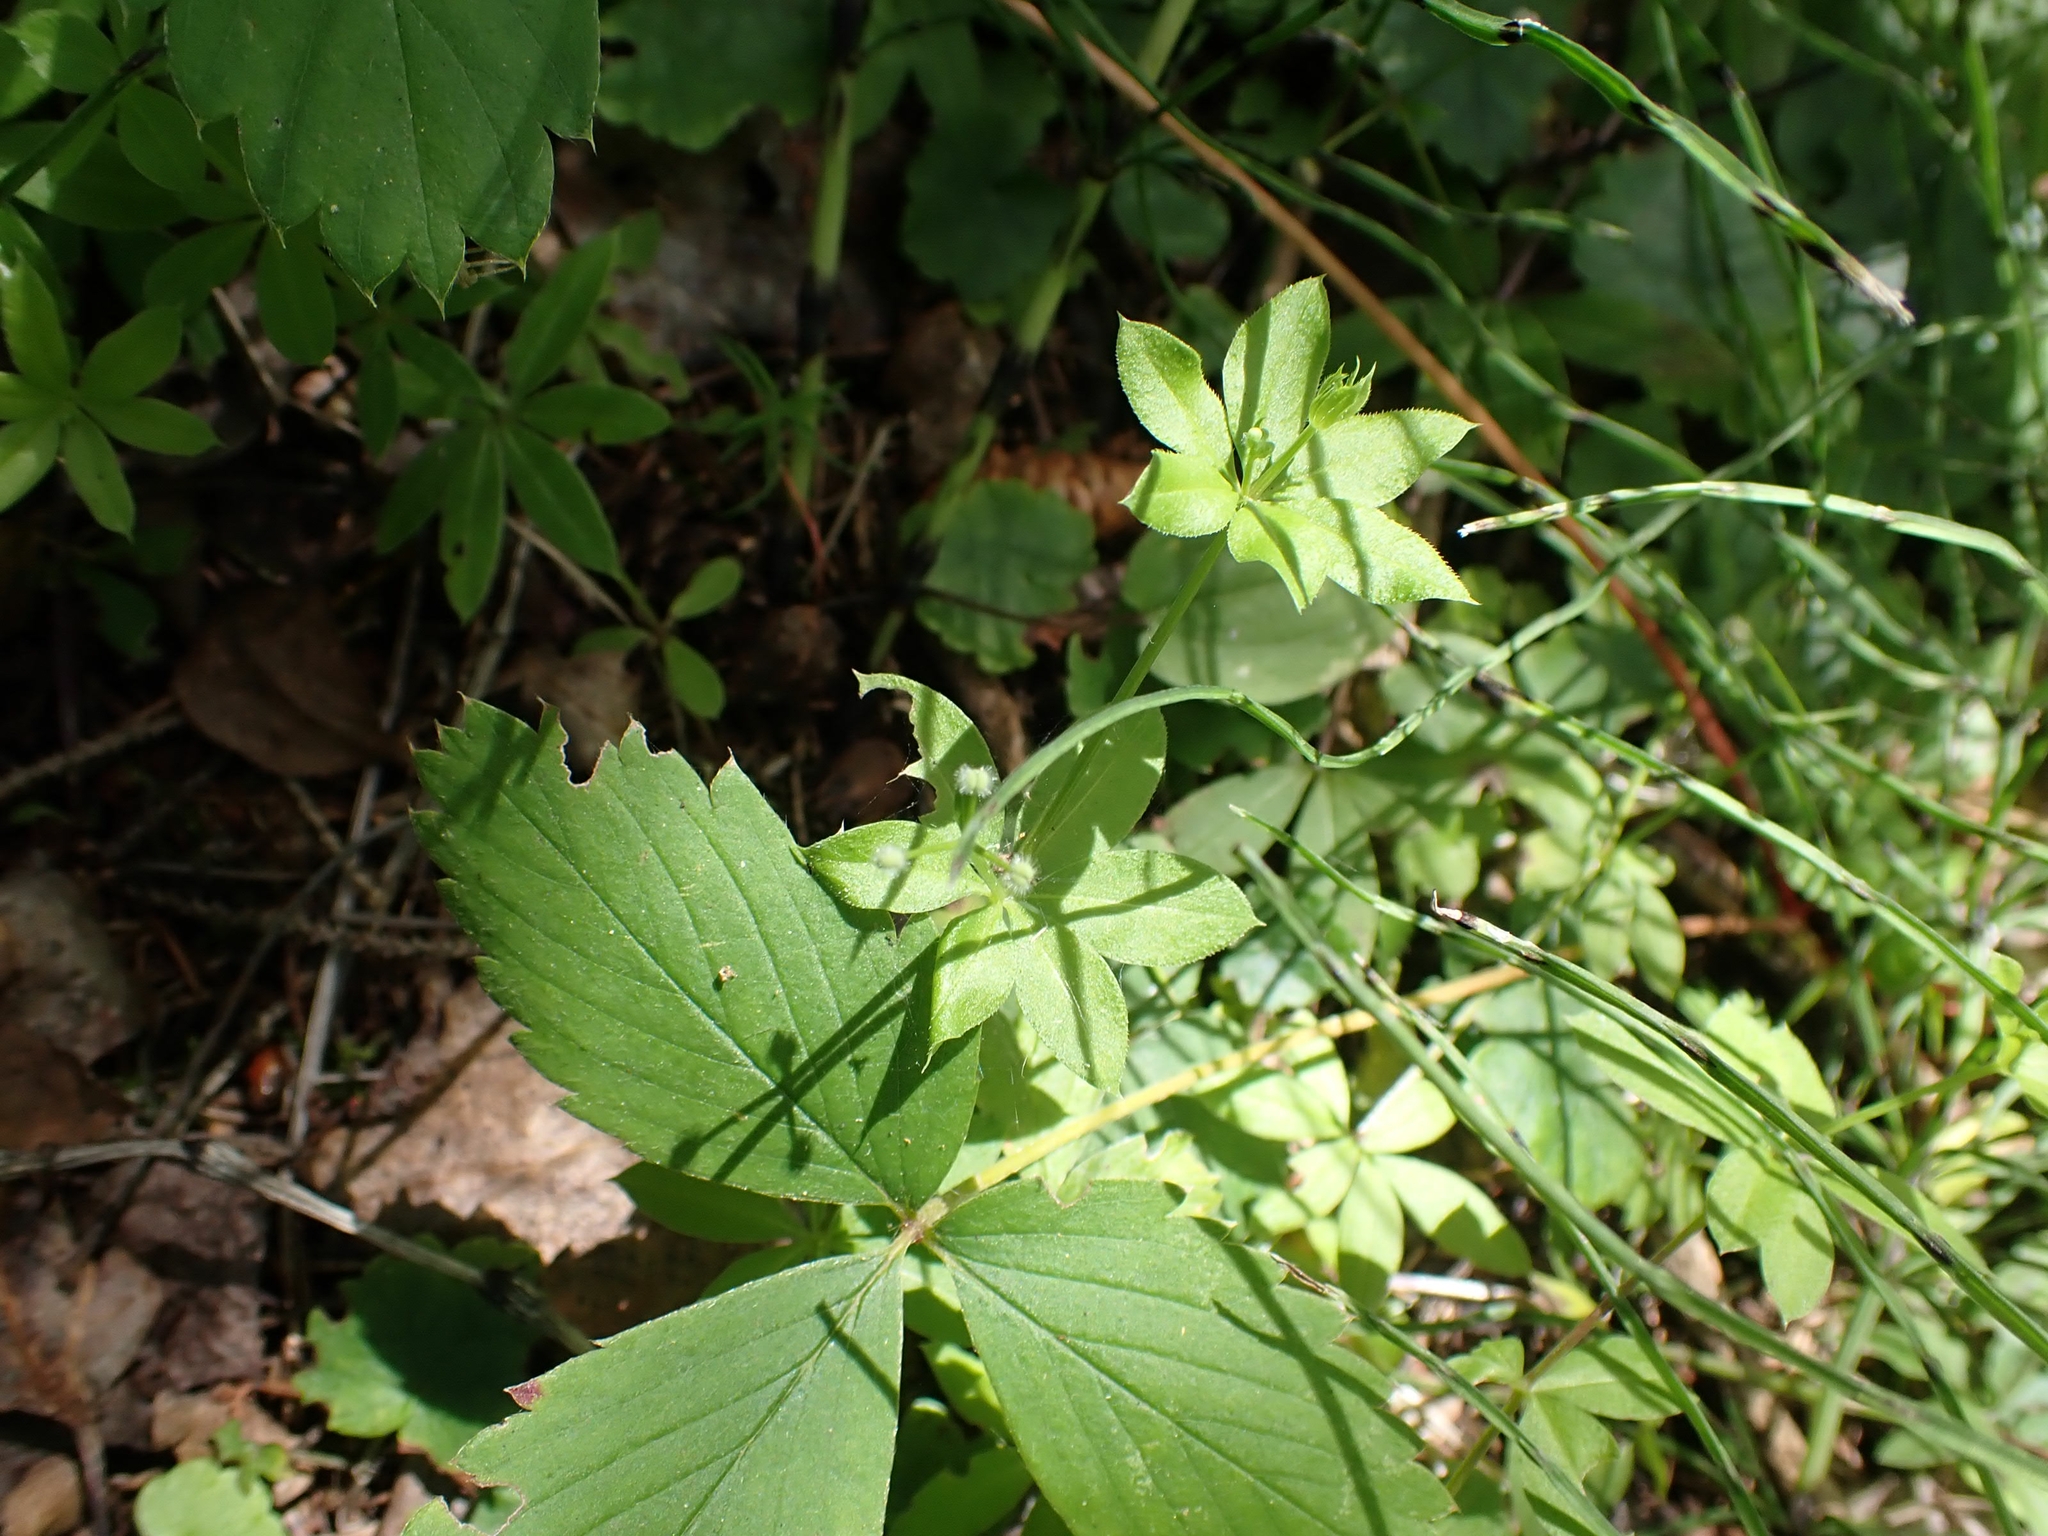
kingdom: Plantae
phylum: Tracheophyta
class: Magnoliopsida
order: Gentianales
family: Rubiaceae
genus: Galium
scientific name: Galium triflorum
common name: Fragrant bedstraw
